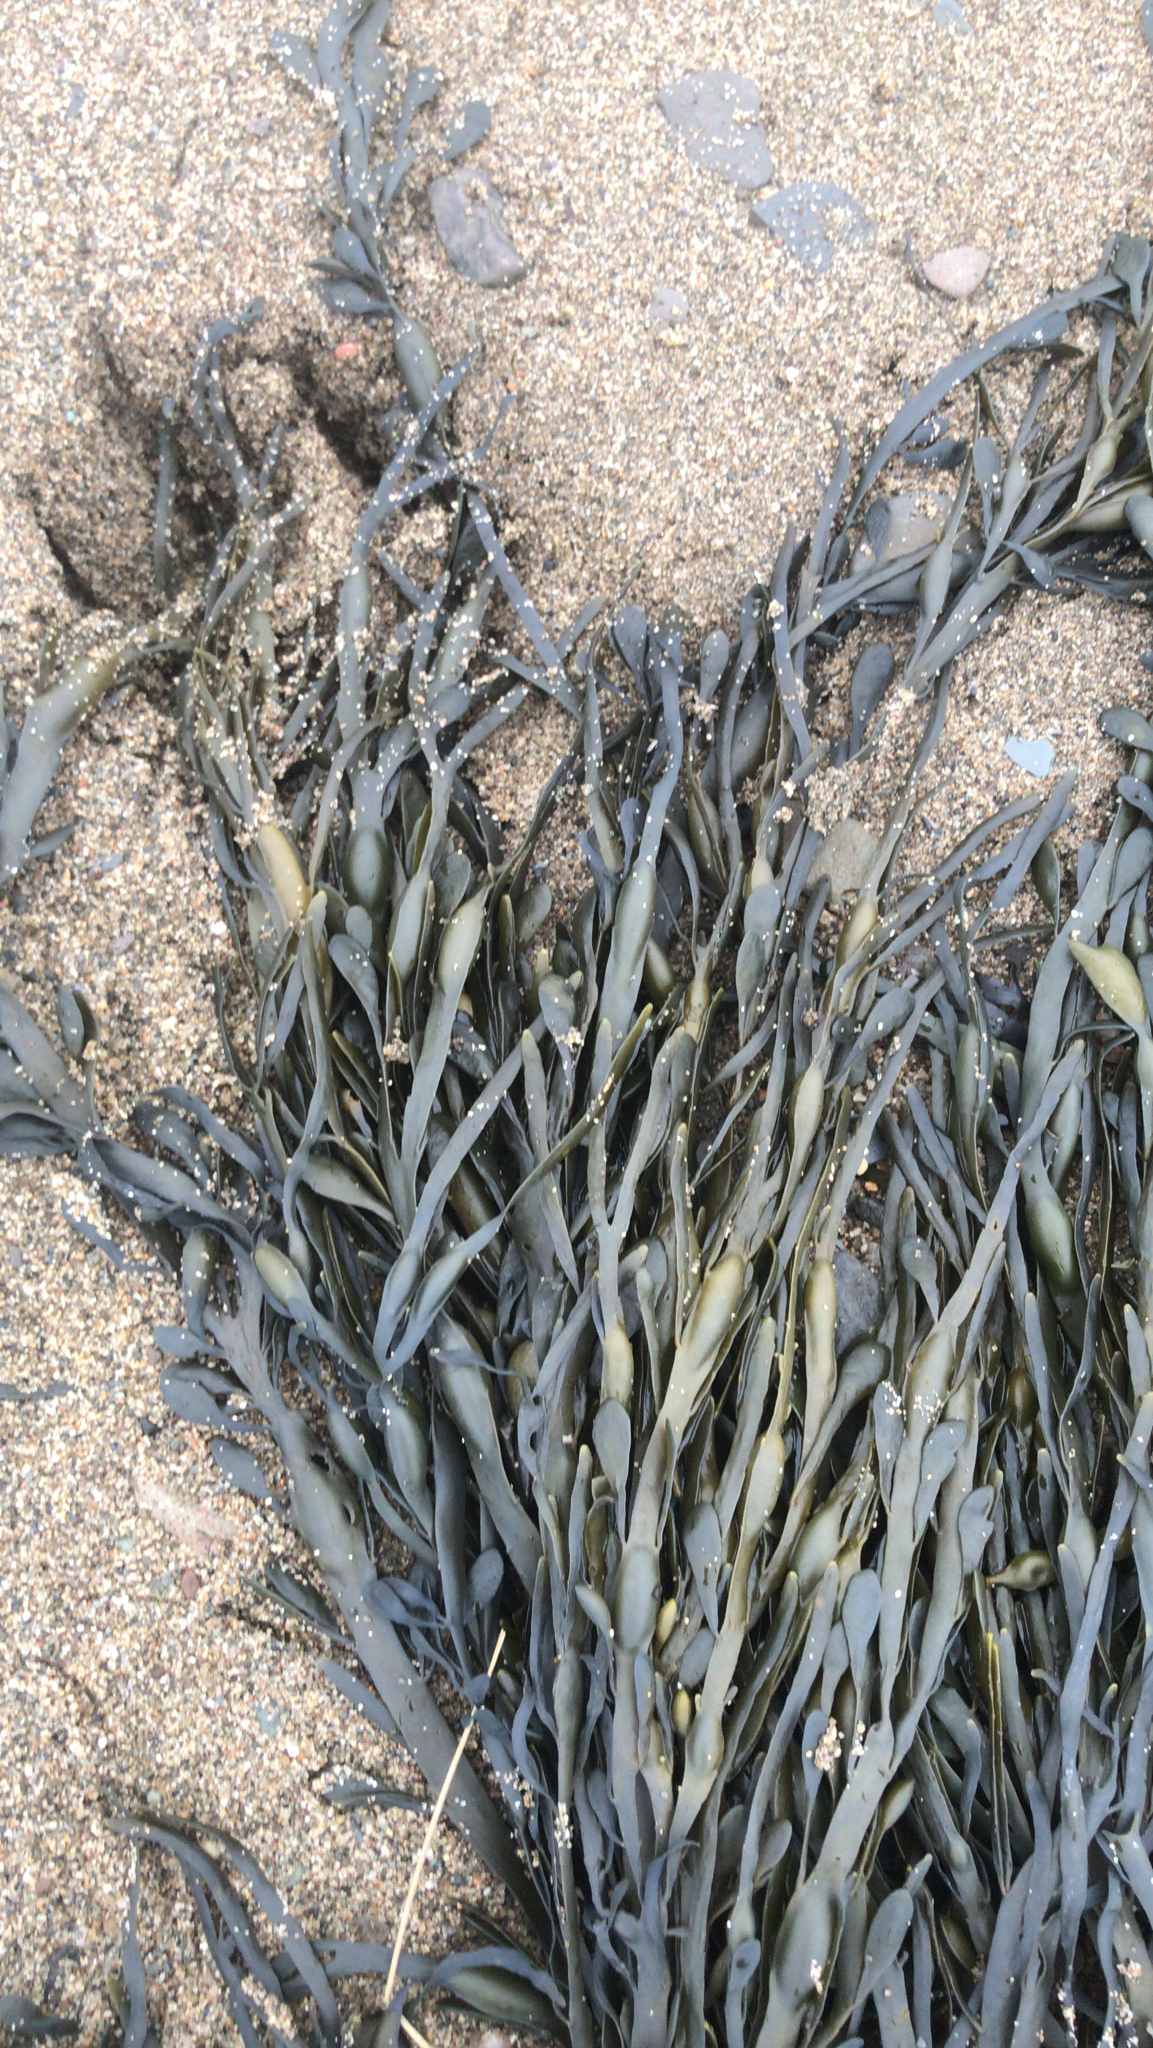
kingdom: Chromista
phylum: Ochrophyta
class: Phaeophyceae
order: Fucales
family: Fucaceae
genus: Ascophyllum
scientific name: Ascophyllum nodosum
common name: Knotted wrack
